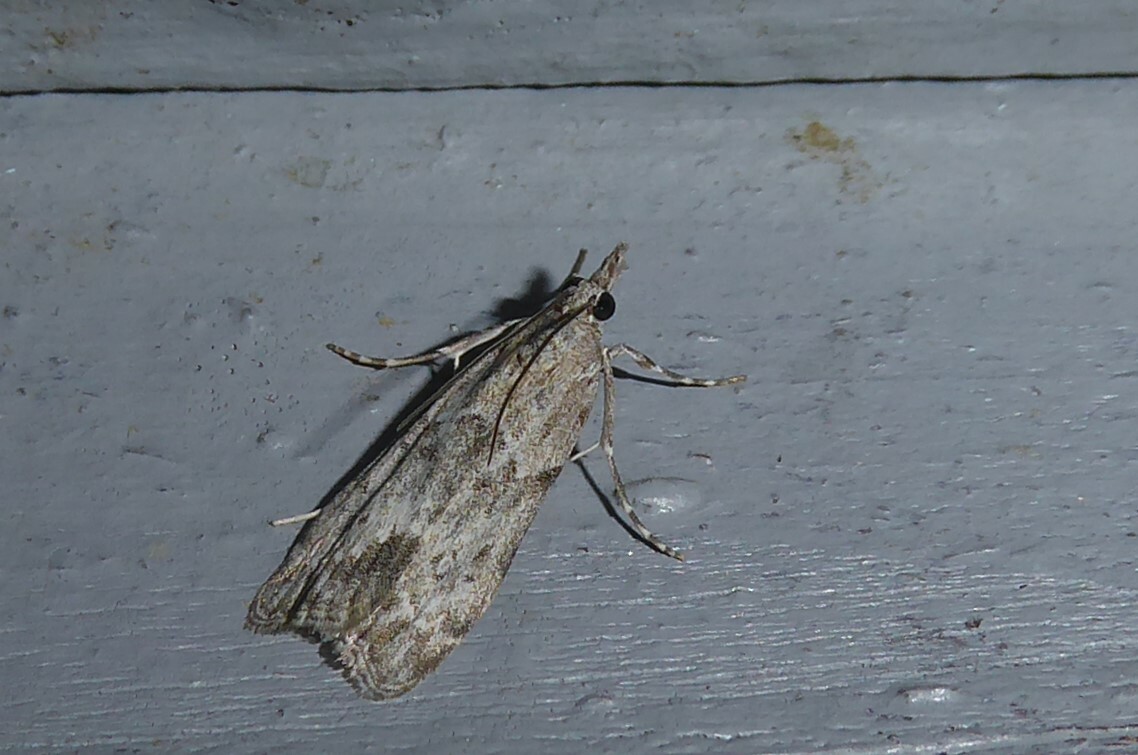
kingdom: Animalia
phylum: Arthropoda
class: Insecta
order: Lepidoptera
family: Crambidae
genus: Eudonia
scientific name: Eudonia rakaiensis
